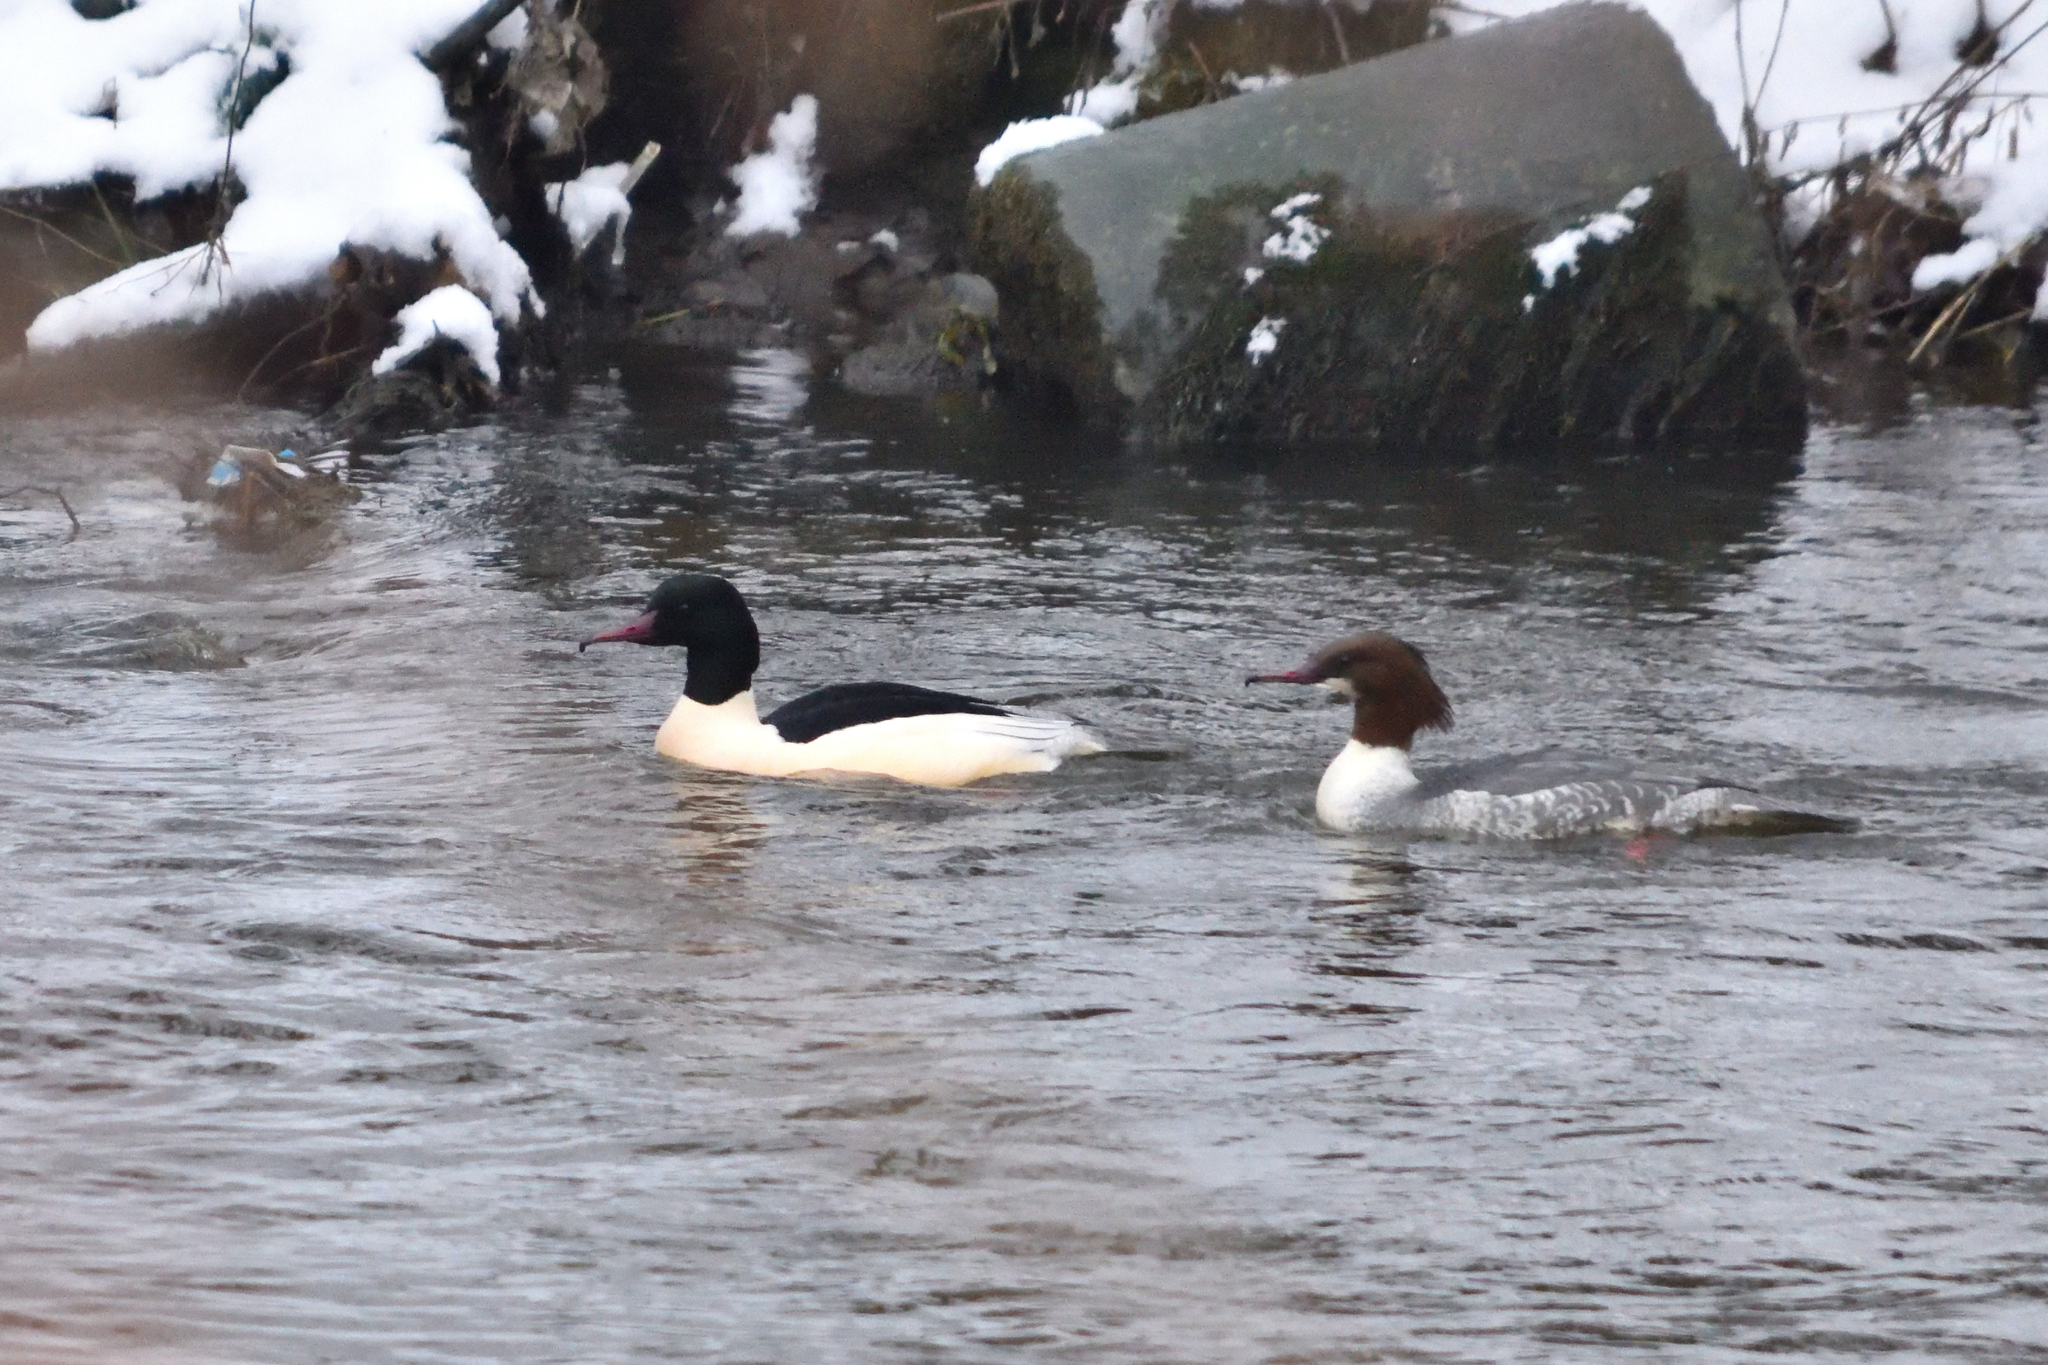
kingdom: Animalia
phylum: Chordata
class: Aves
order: Anseriformes
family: Anatidae
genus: Mergus
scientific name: Mergus merganser
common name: Common merganser
